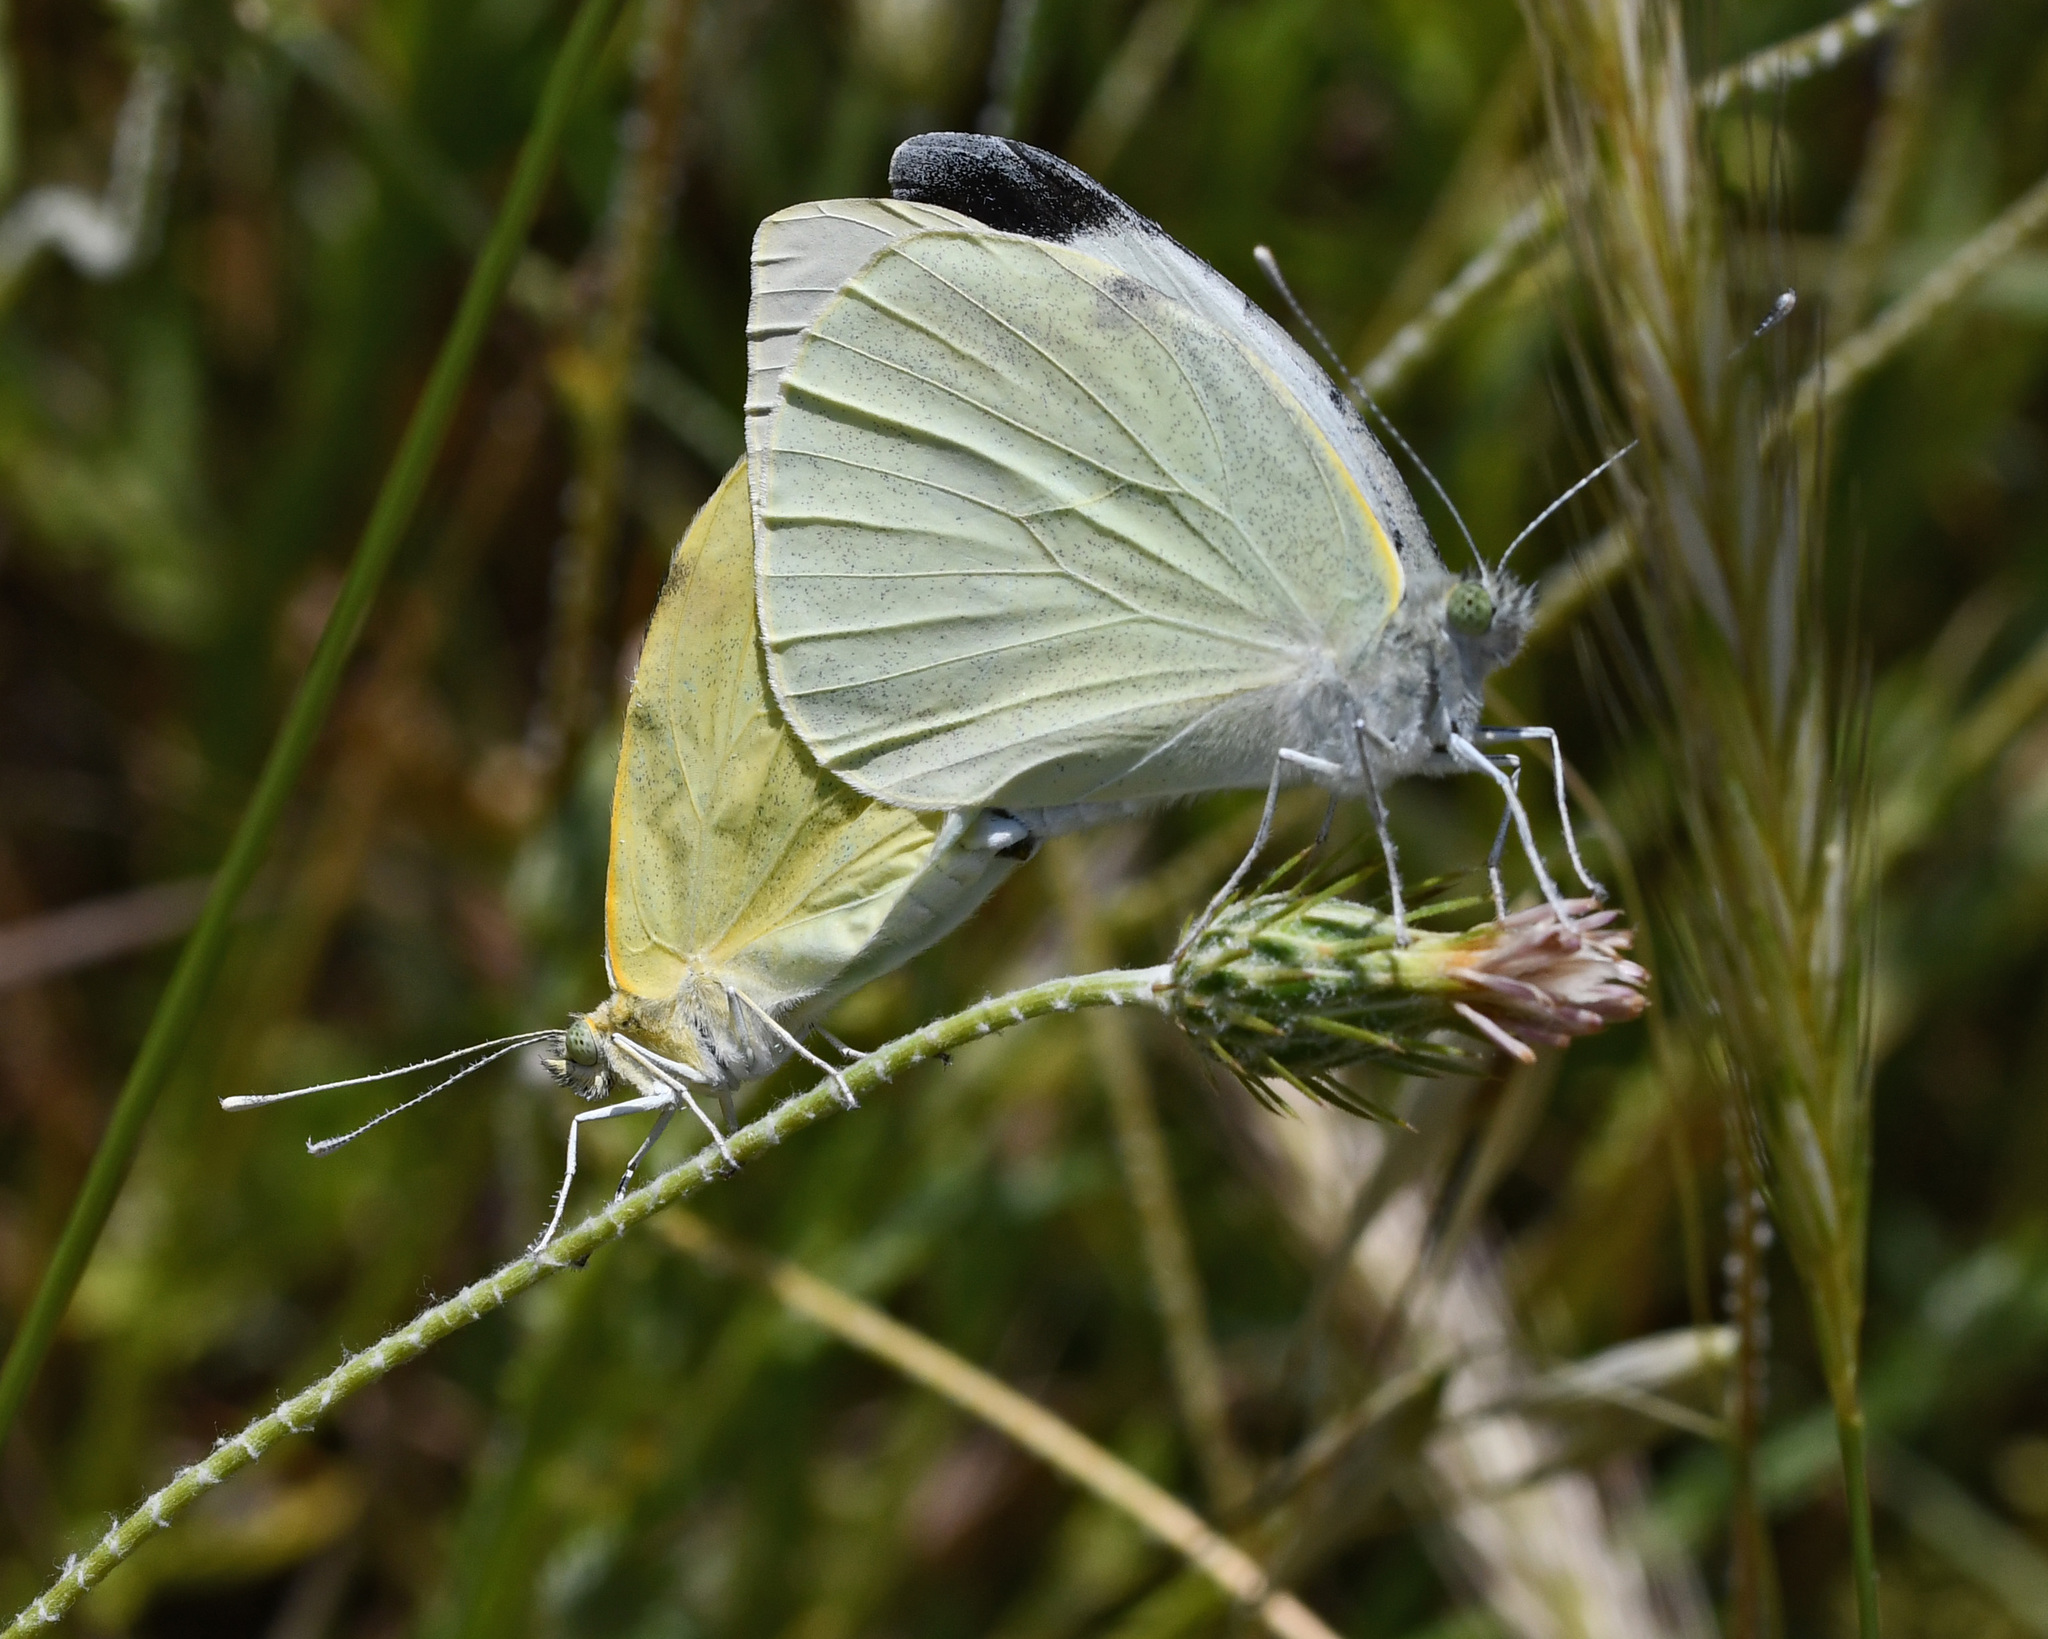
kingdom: Animalia
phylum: Arthropoda
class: Insecta
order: Lepidoptera
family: Pieridae
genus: Pieris
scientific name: Pieris brassicae
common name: Large white
